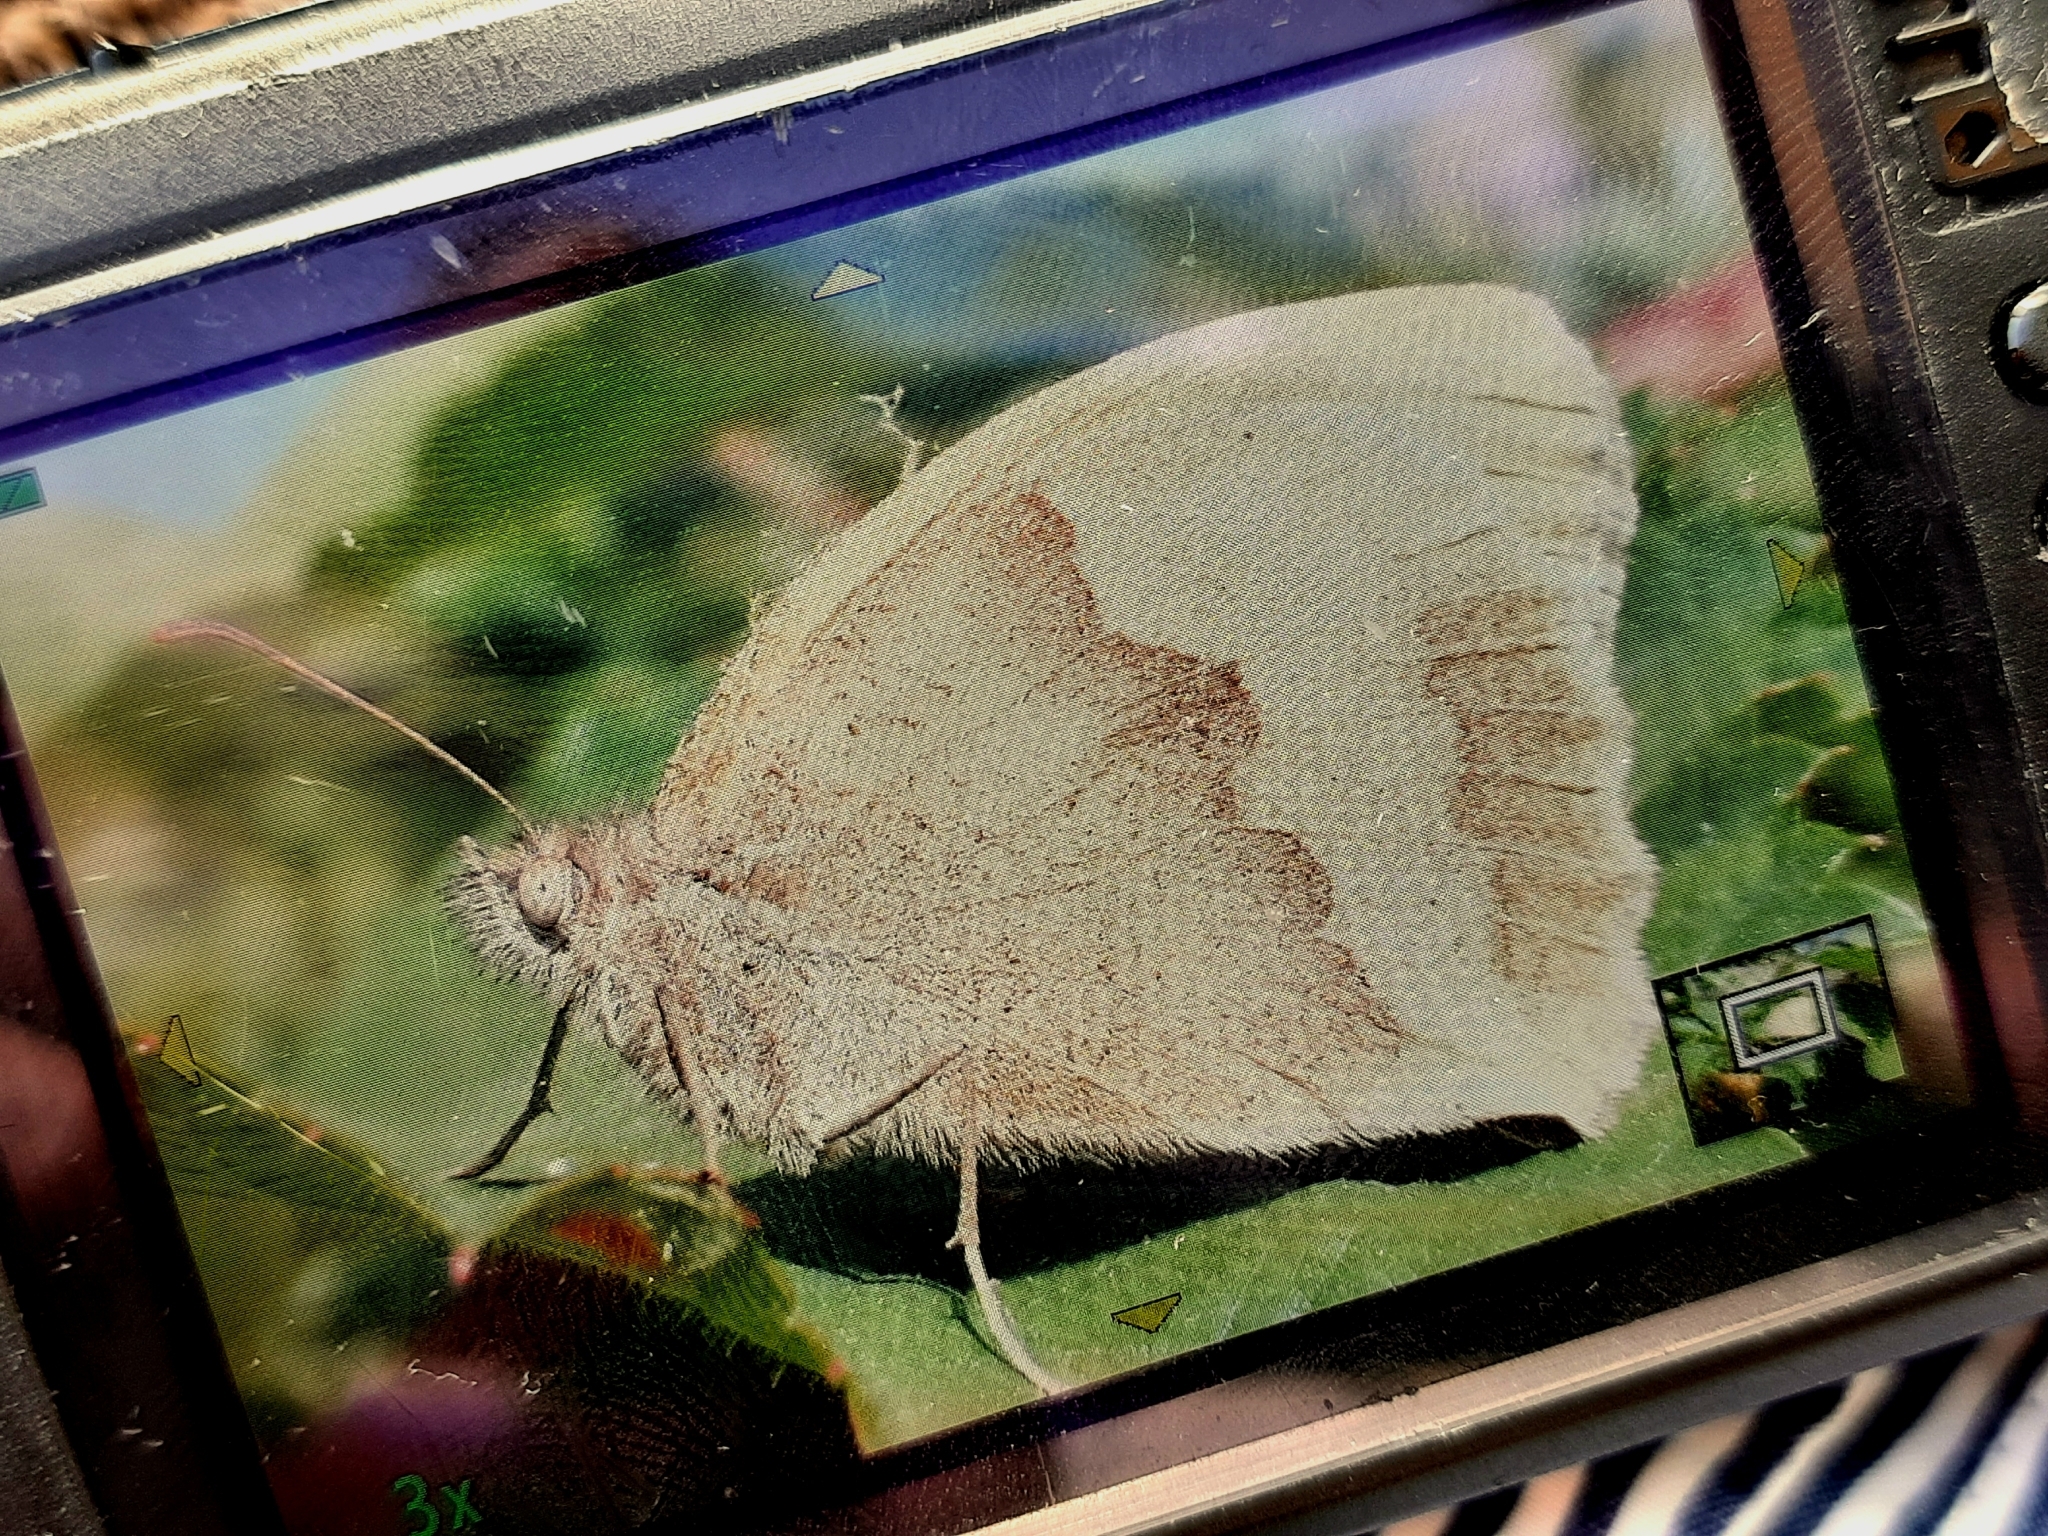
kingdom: Animalia
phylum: Arthropoda
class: Insecta
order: Lepidoptera
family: Nymphalidae
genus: Maniola
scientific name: Maniola jurtina
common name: Meadow brown
